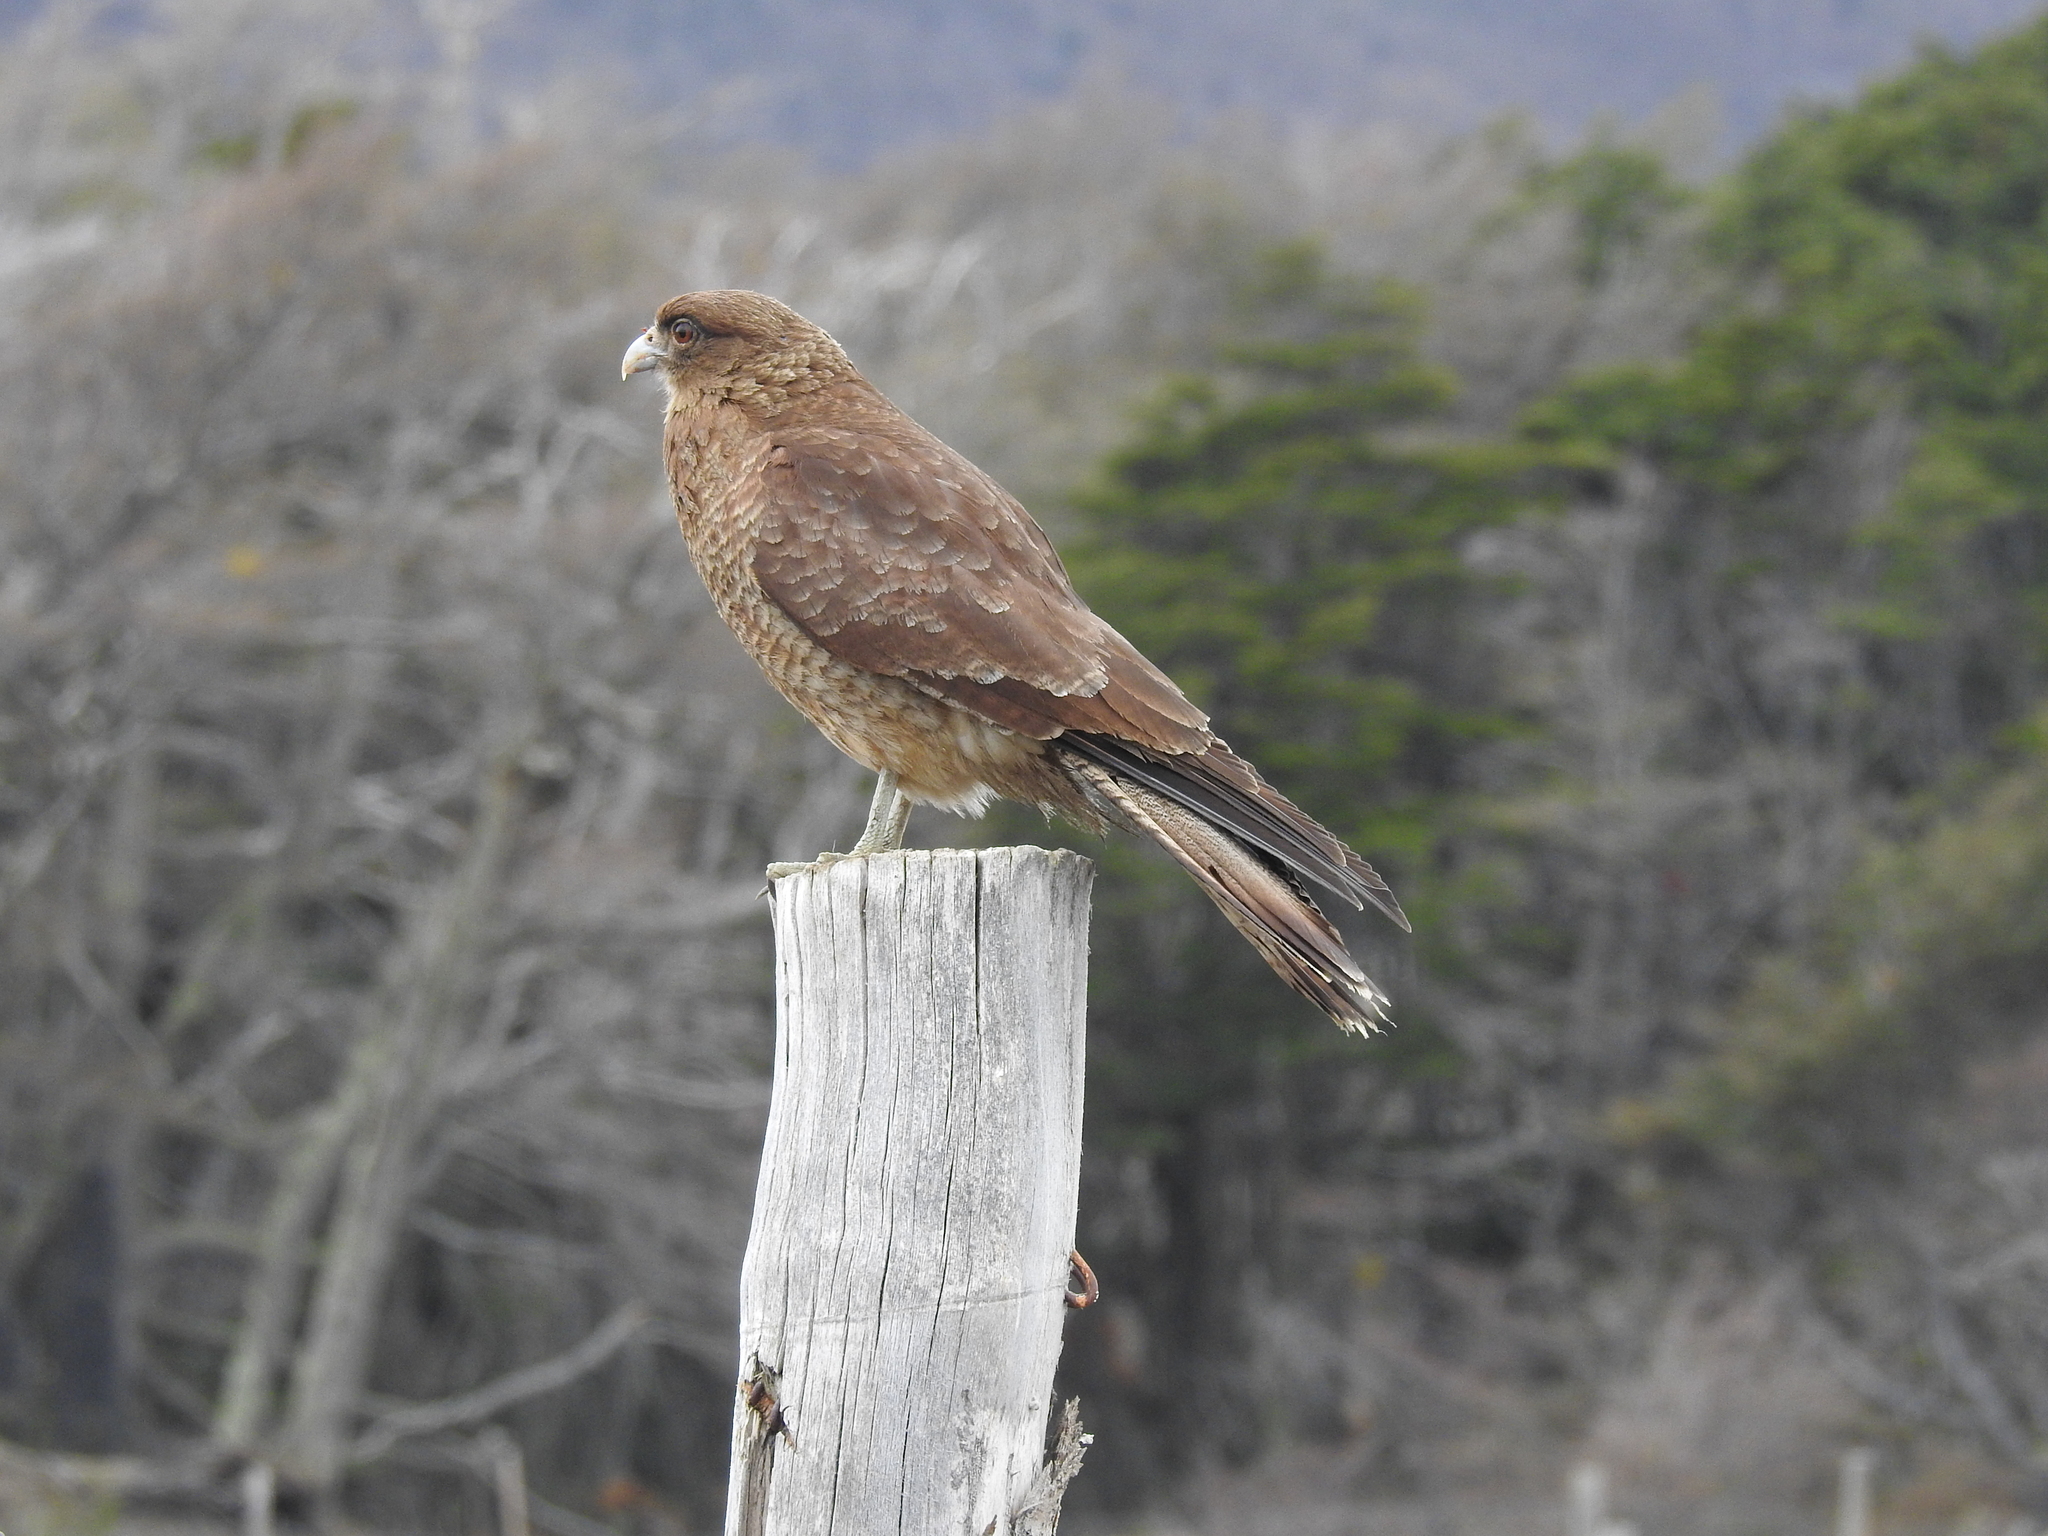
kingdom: Animalia
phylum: Chordata
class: Aves
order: Falconiformes
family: Falconidae
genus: Daptrius
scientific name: Daptrius
